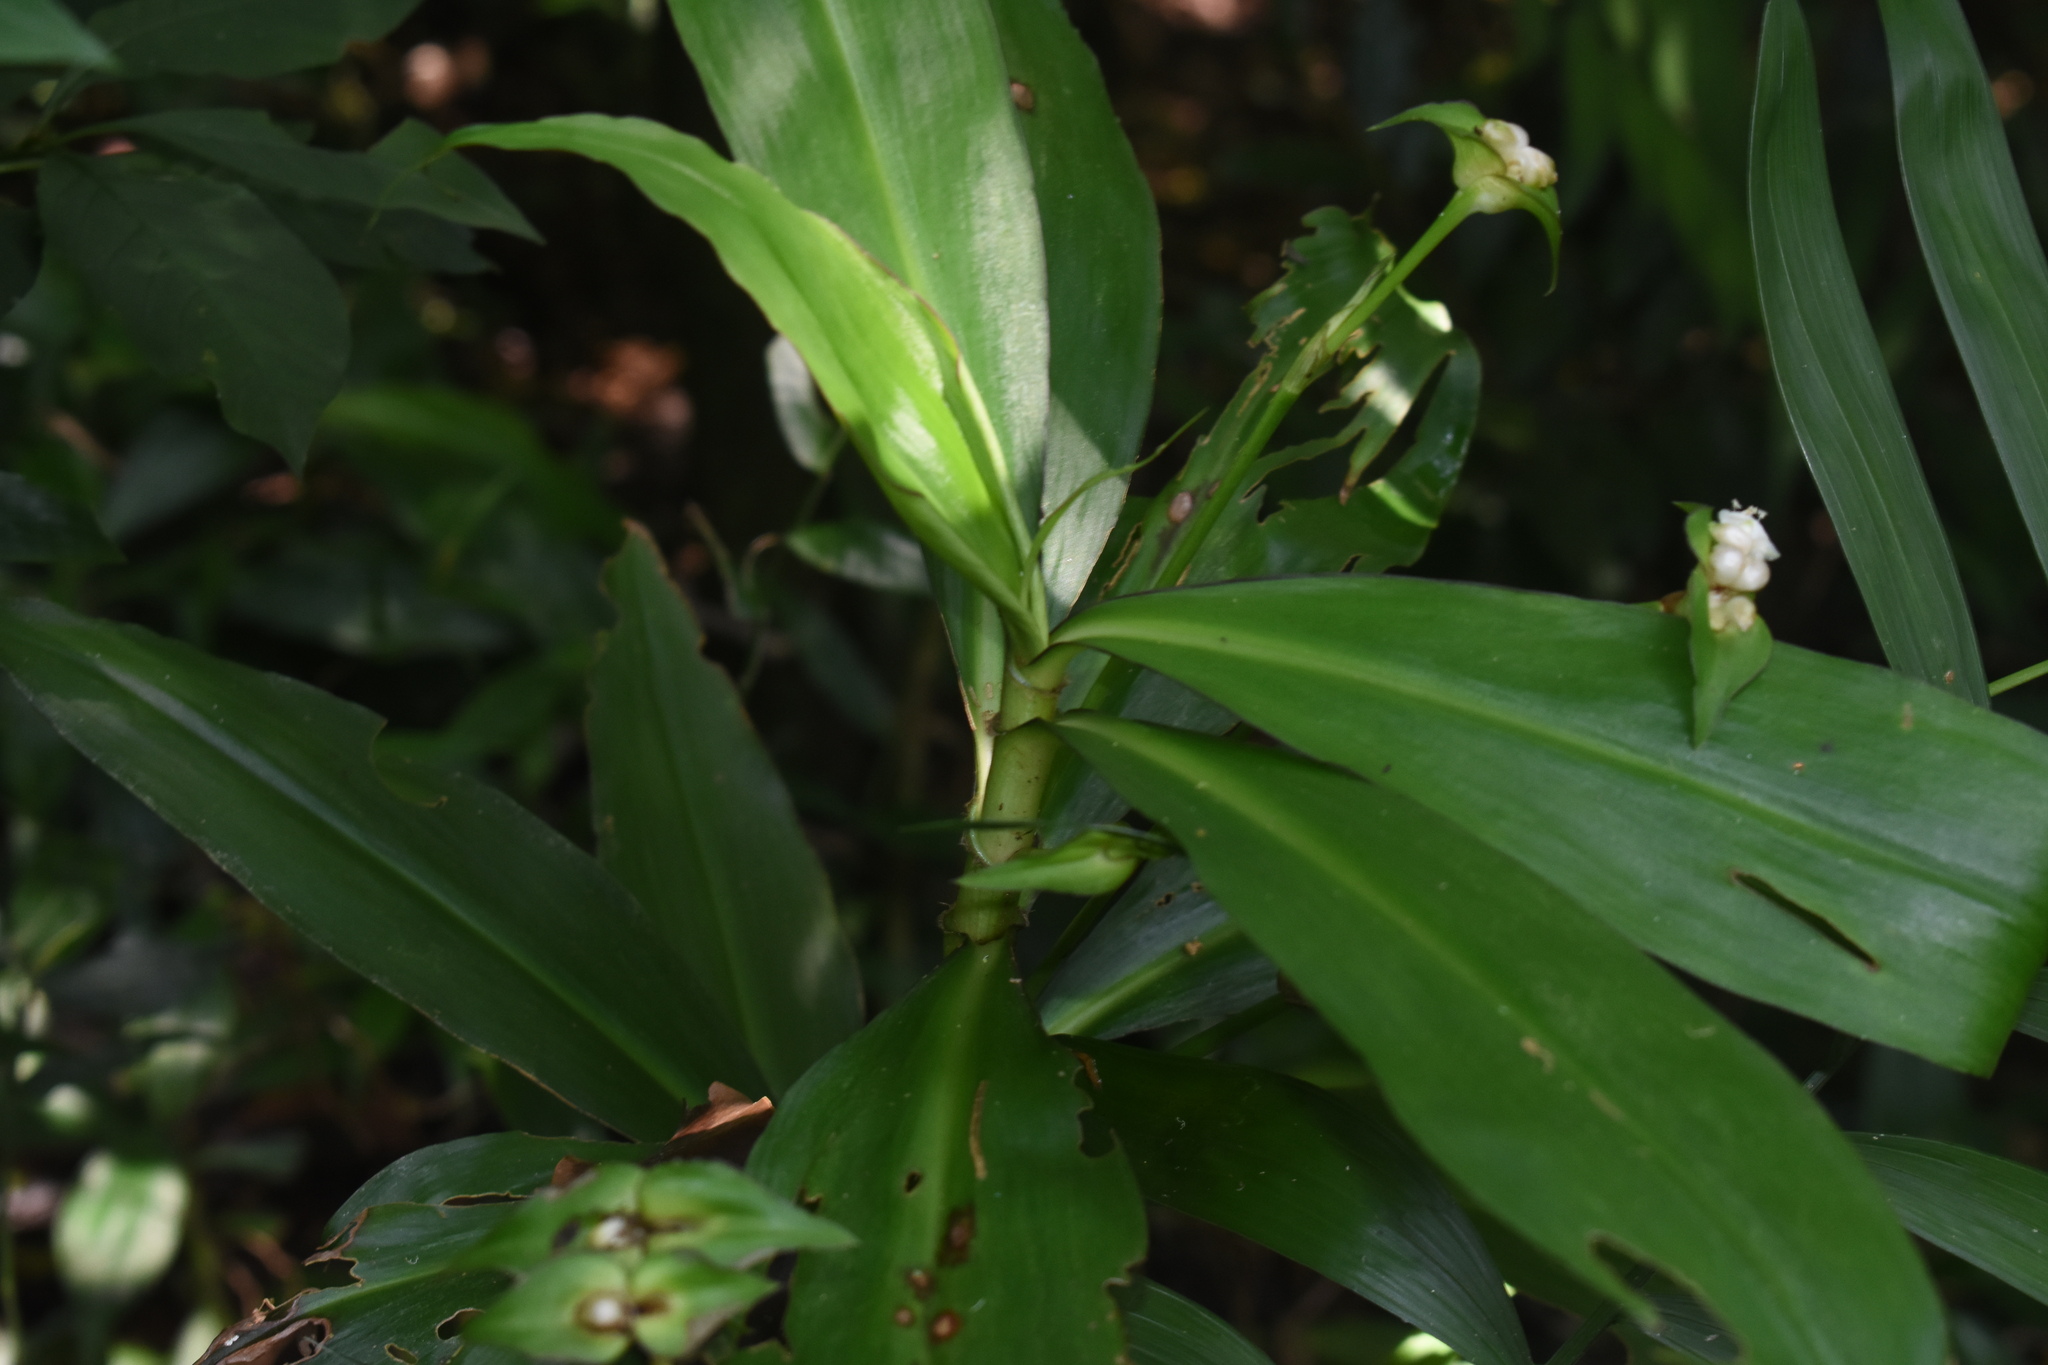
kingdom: Plantae
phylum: Tracheophyta
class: Liliopsida
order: Commelinales
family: Commelinaceae
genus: Tradescantia
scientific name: Tradescantia zanonia
